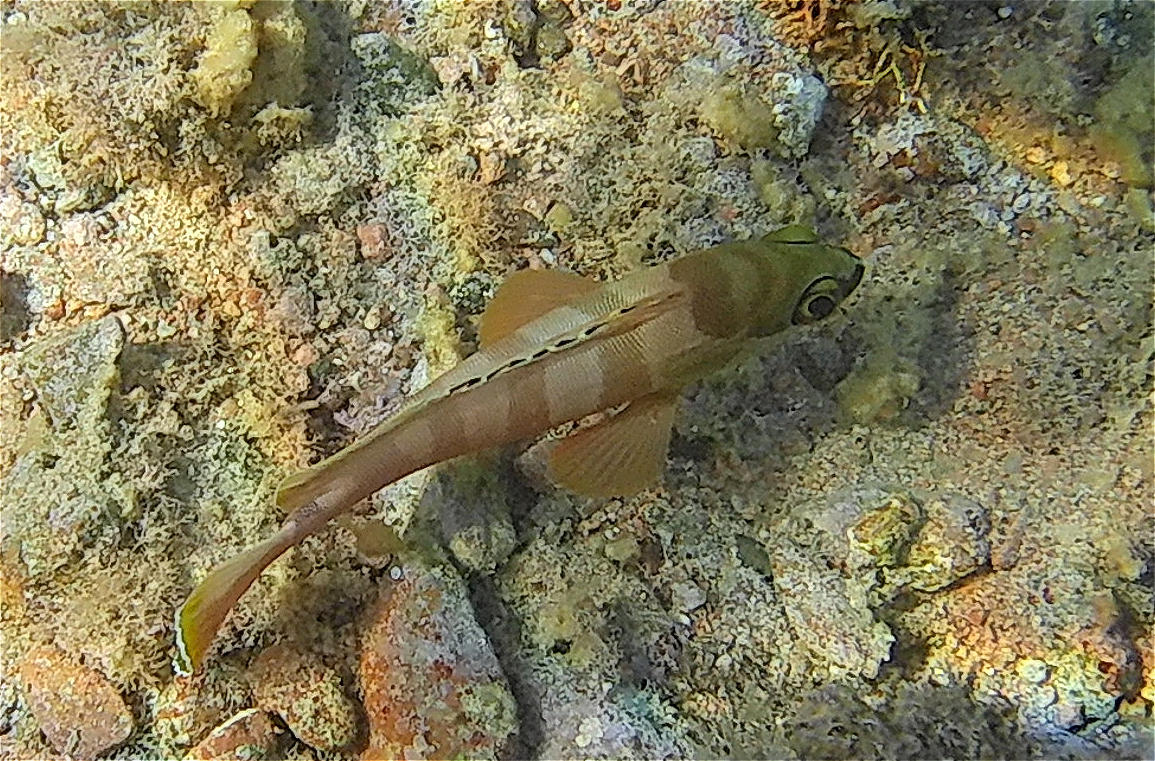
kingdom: Animalia
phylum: Chordata
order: Perciformes
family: Serranidae
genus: Epinephelus
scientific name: Epinephelus fasciatus
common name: Blacktip grouper
